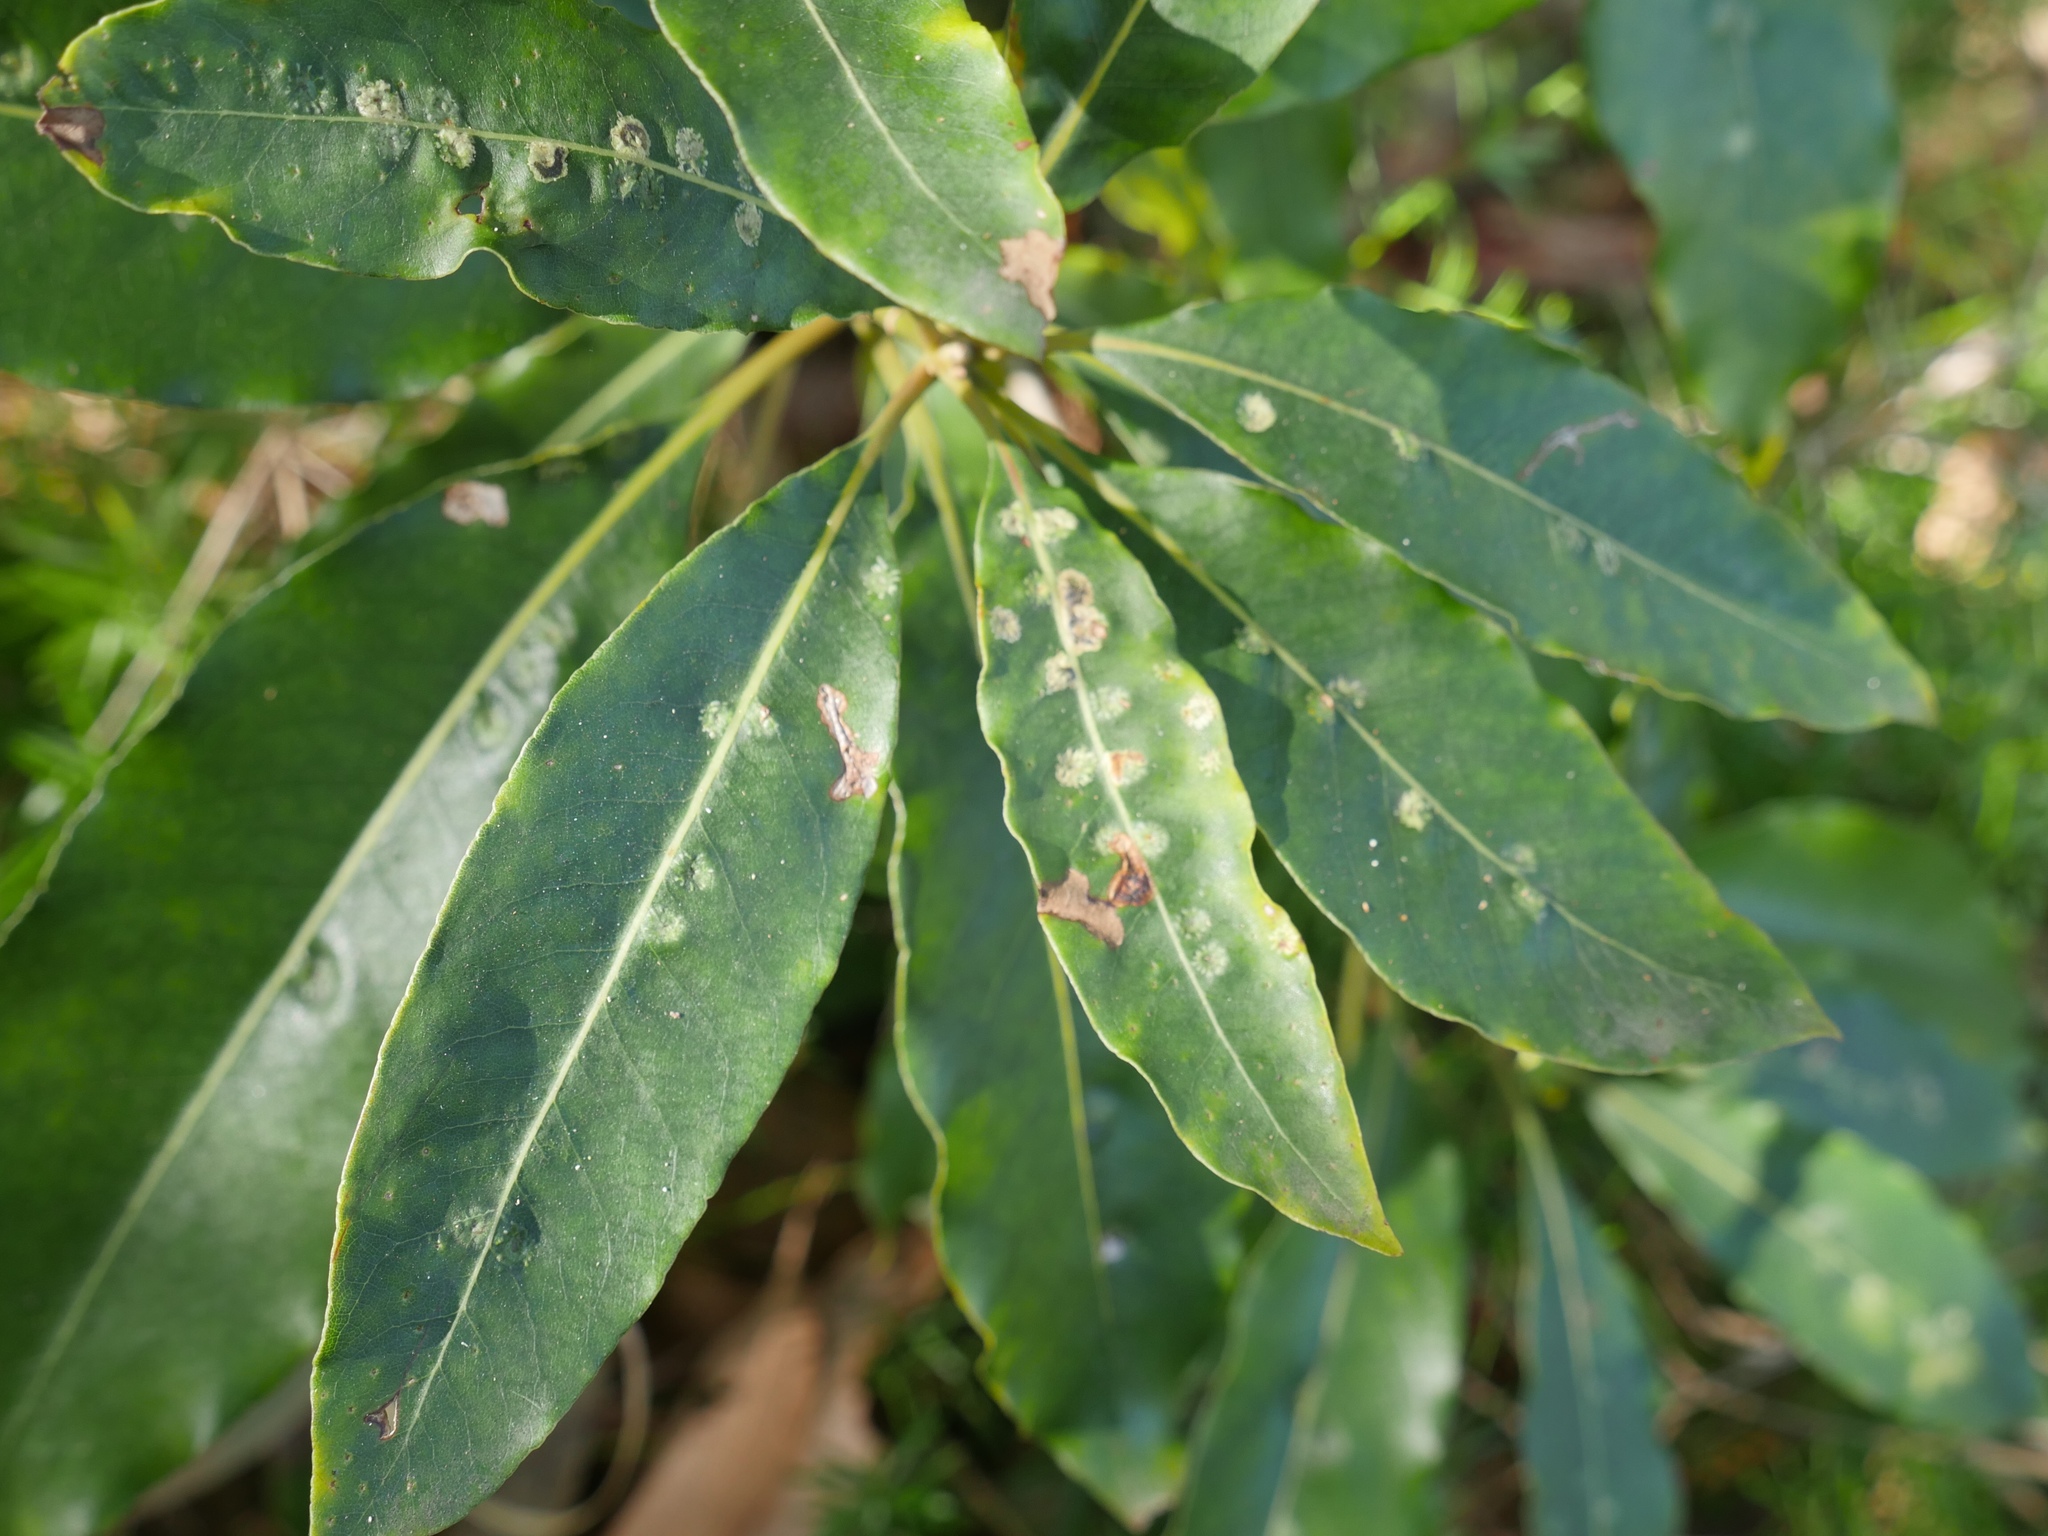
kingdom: Plantae
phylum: Tracheophyta
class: Magnoliopsida
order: Apiales
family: Pittosporaceae
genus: Pittosporum
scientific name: Pittosporum undulatum
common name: Australian cheesewood
